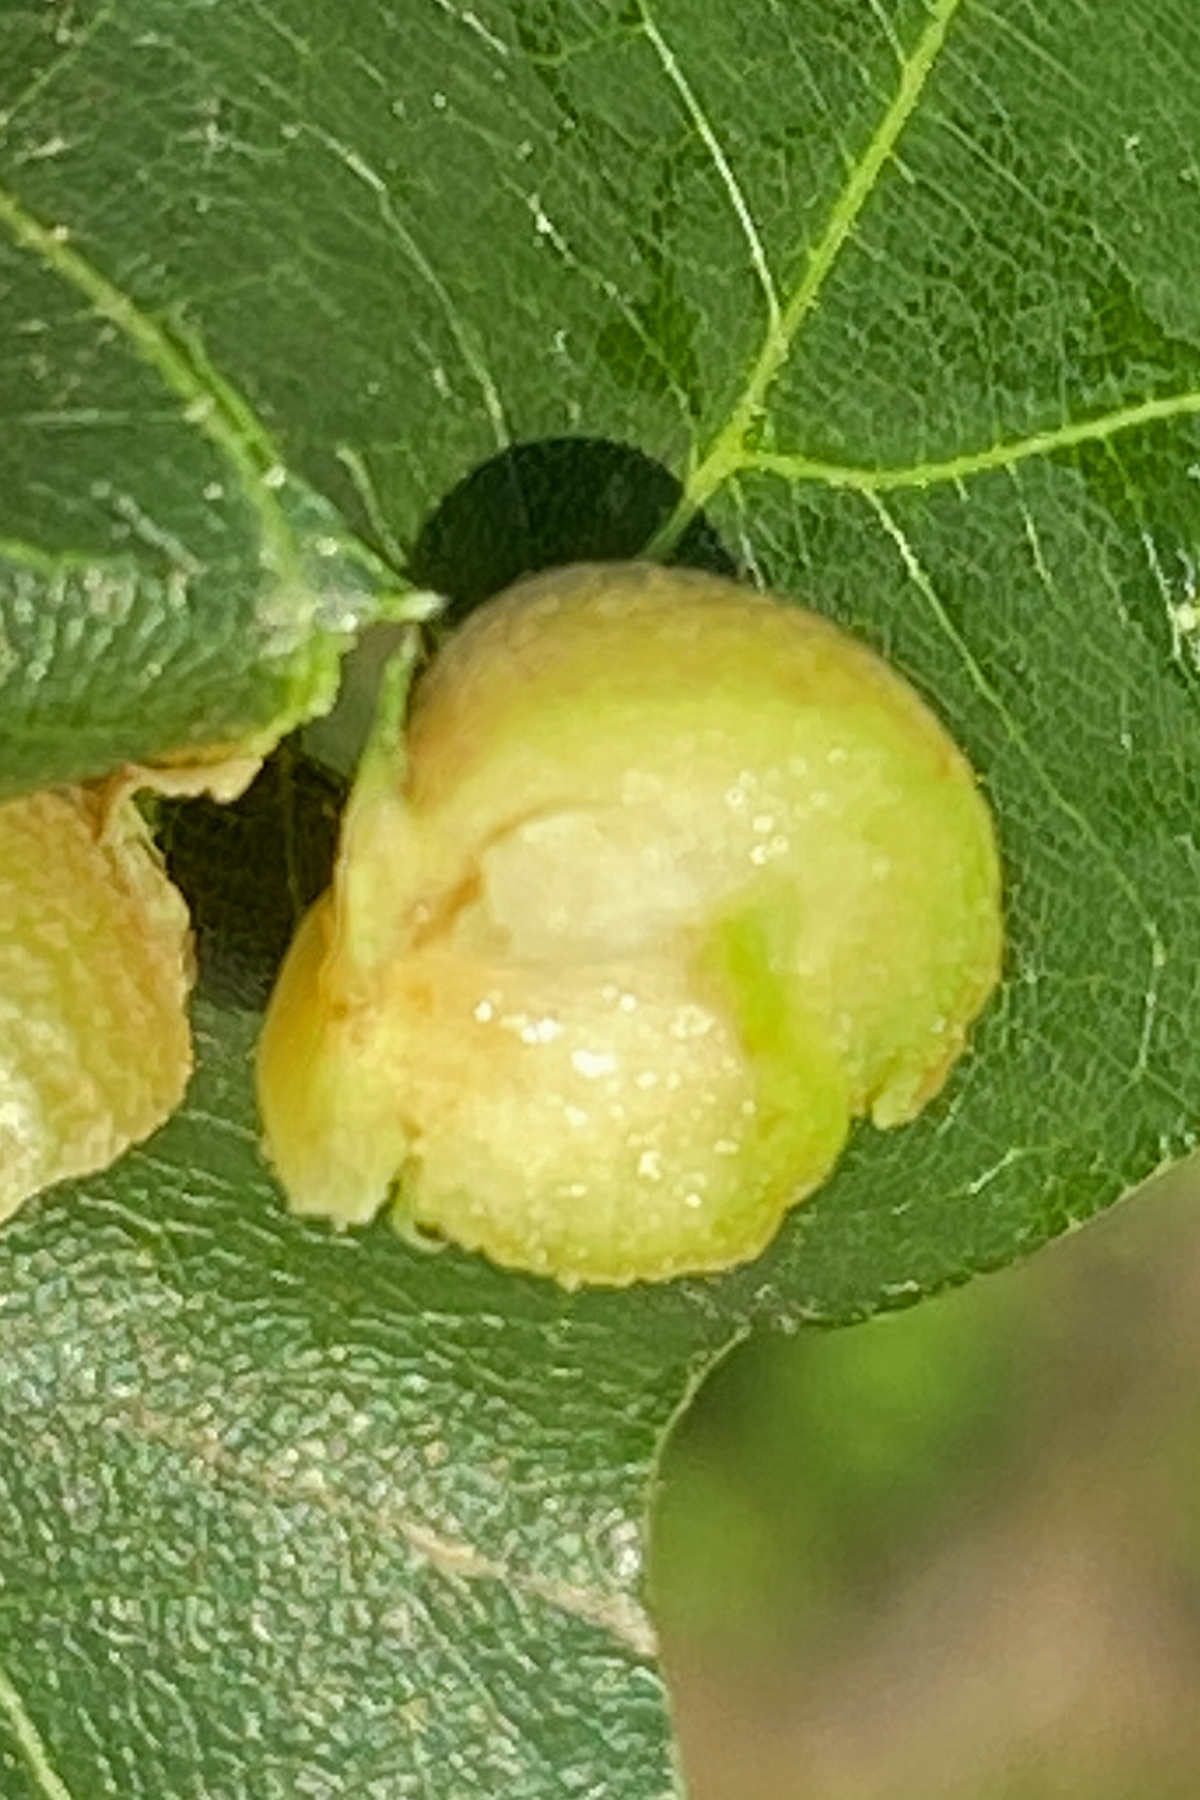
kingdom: Animalia
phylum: Arthropoda
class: Insecta
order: Diptera
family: Cecidomyiidae
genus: Polystepha
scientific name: Polystepha pilulae
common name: Oak leaf gall midge
